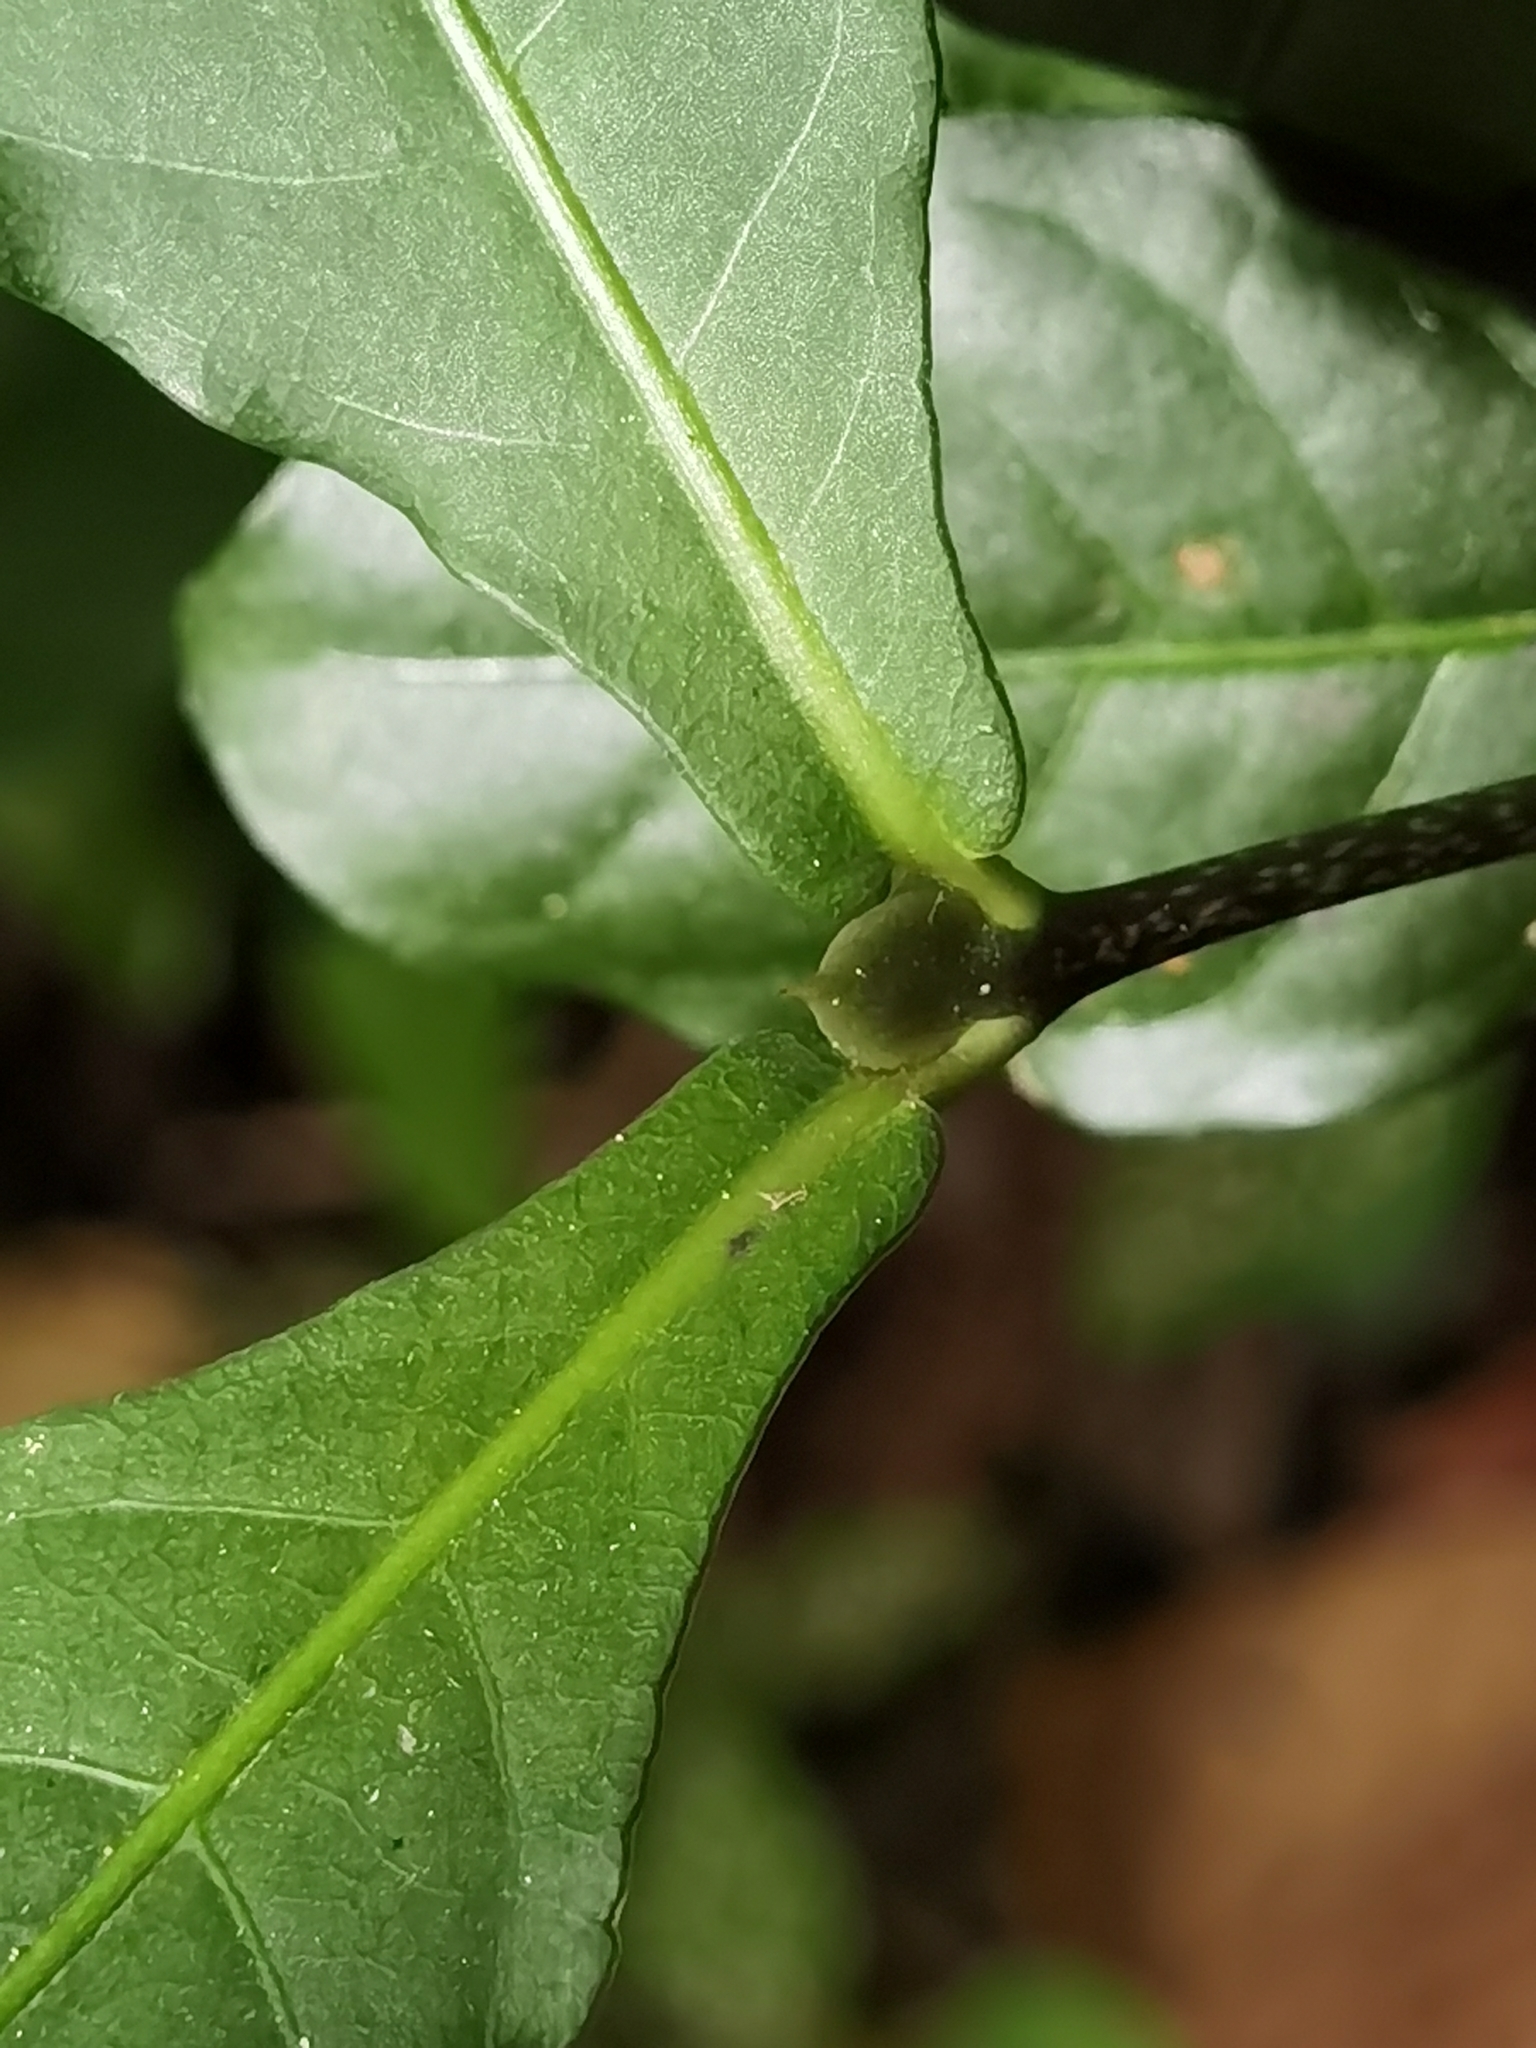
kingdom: Plantae
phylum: Tracheophyta
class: Magnoliopsida
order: Gentianales
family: Rubiaceae
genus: Psychotria
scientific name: Psychotria subsessilis
